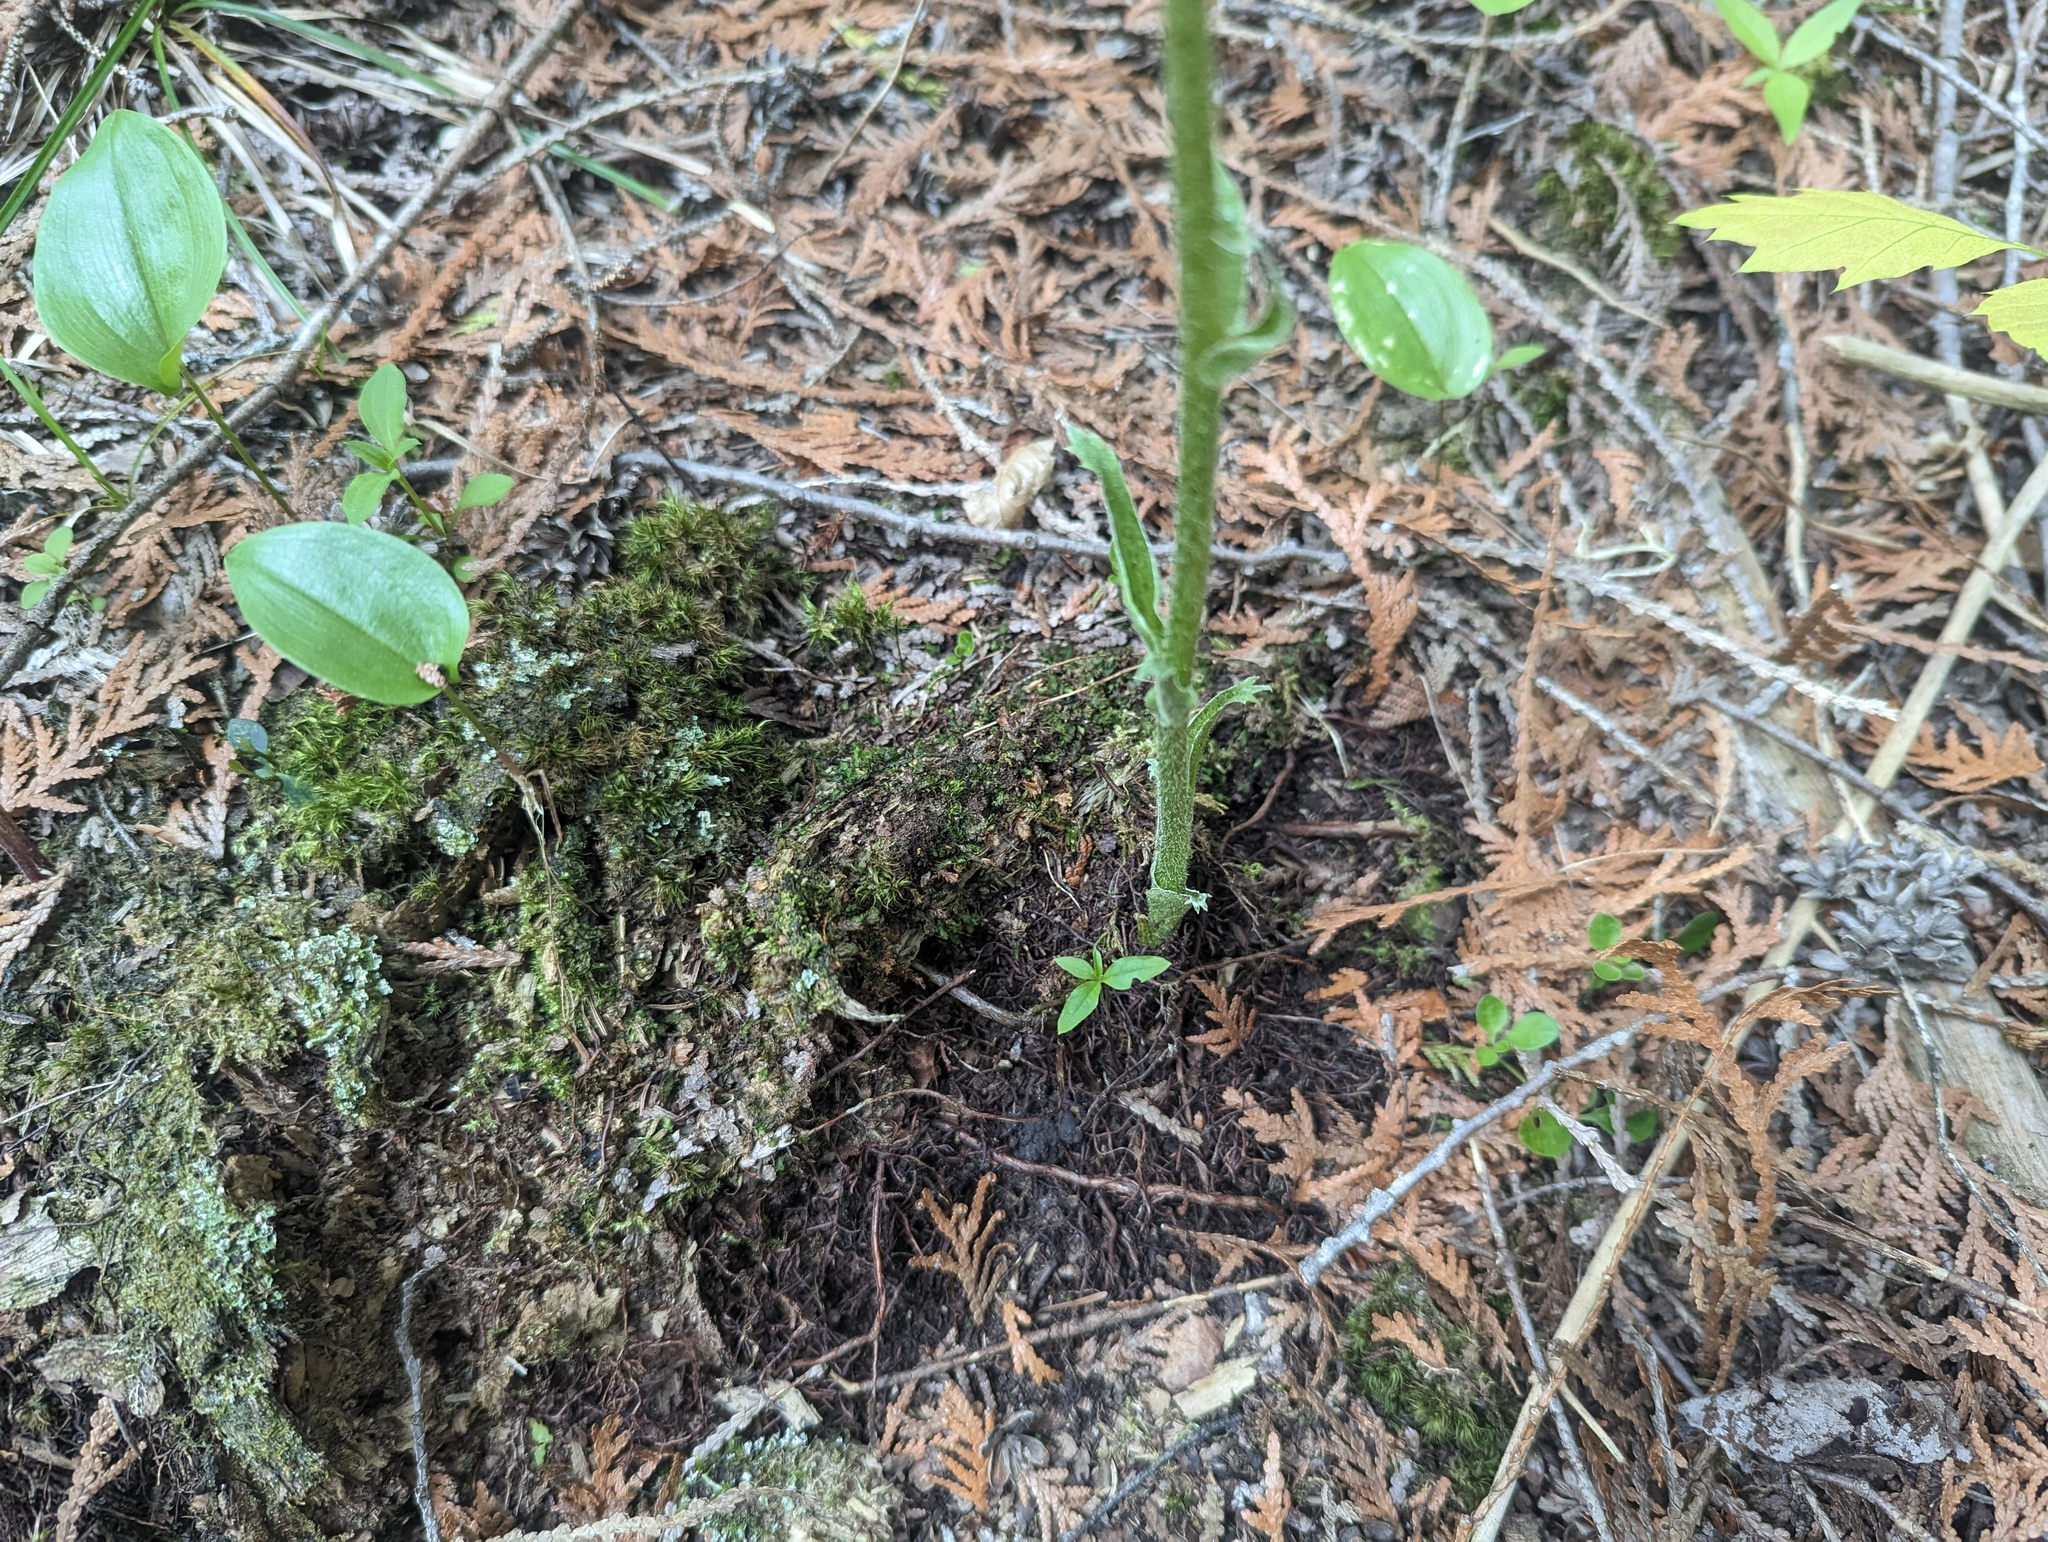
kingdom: Plantae
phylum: Tracheophyta
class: Magnoliopsida
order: Asterales
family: Asteraceae
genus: Petasites
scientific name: Petasites frigidus
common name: Arctic butterbur
